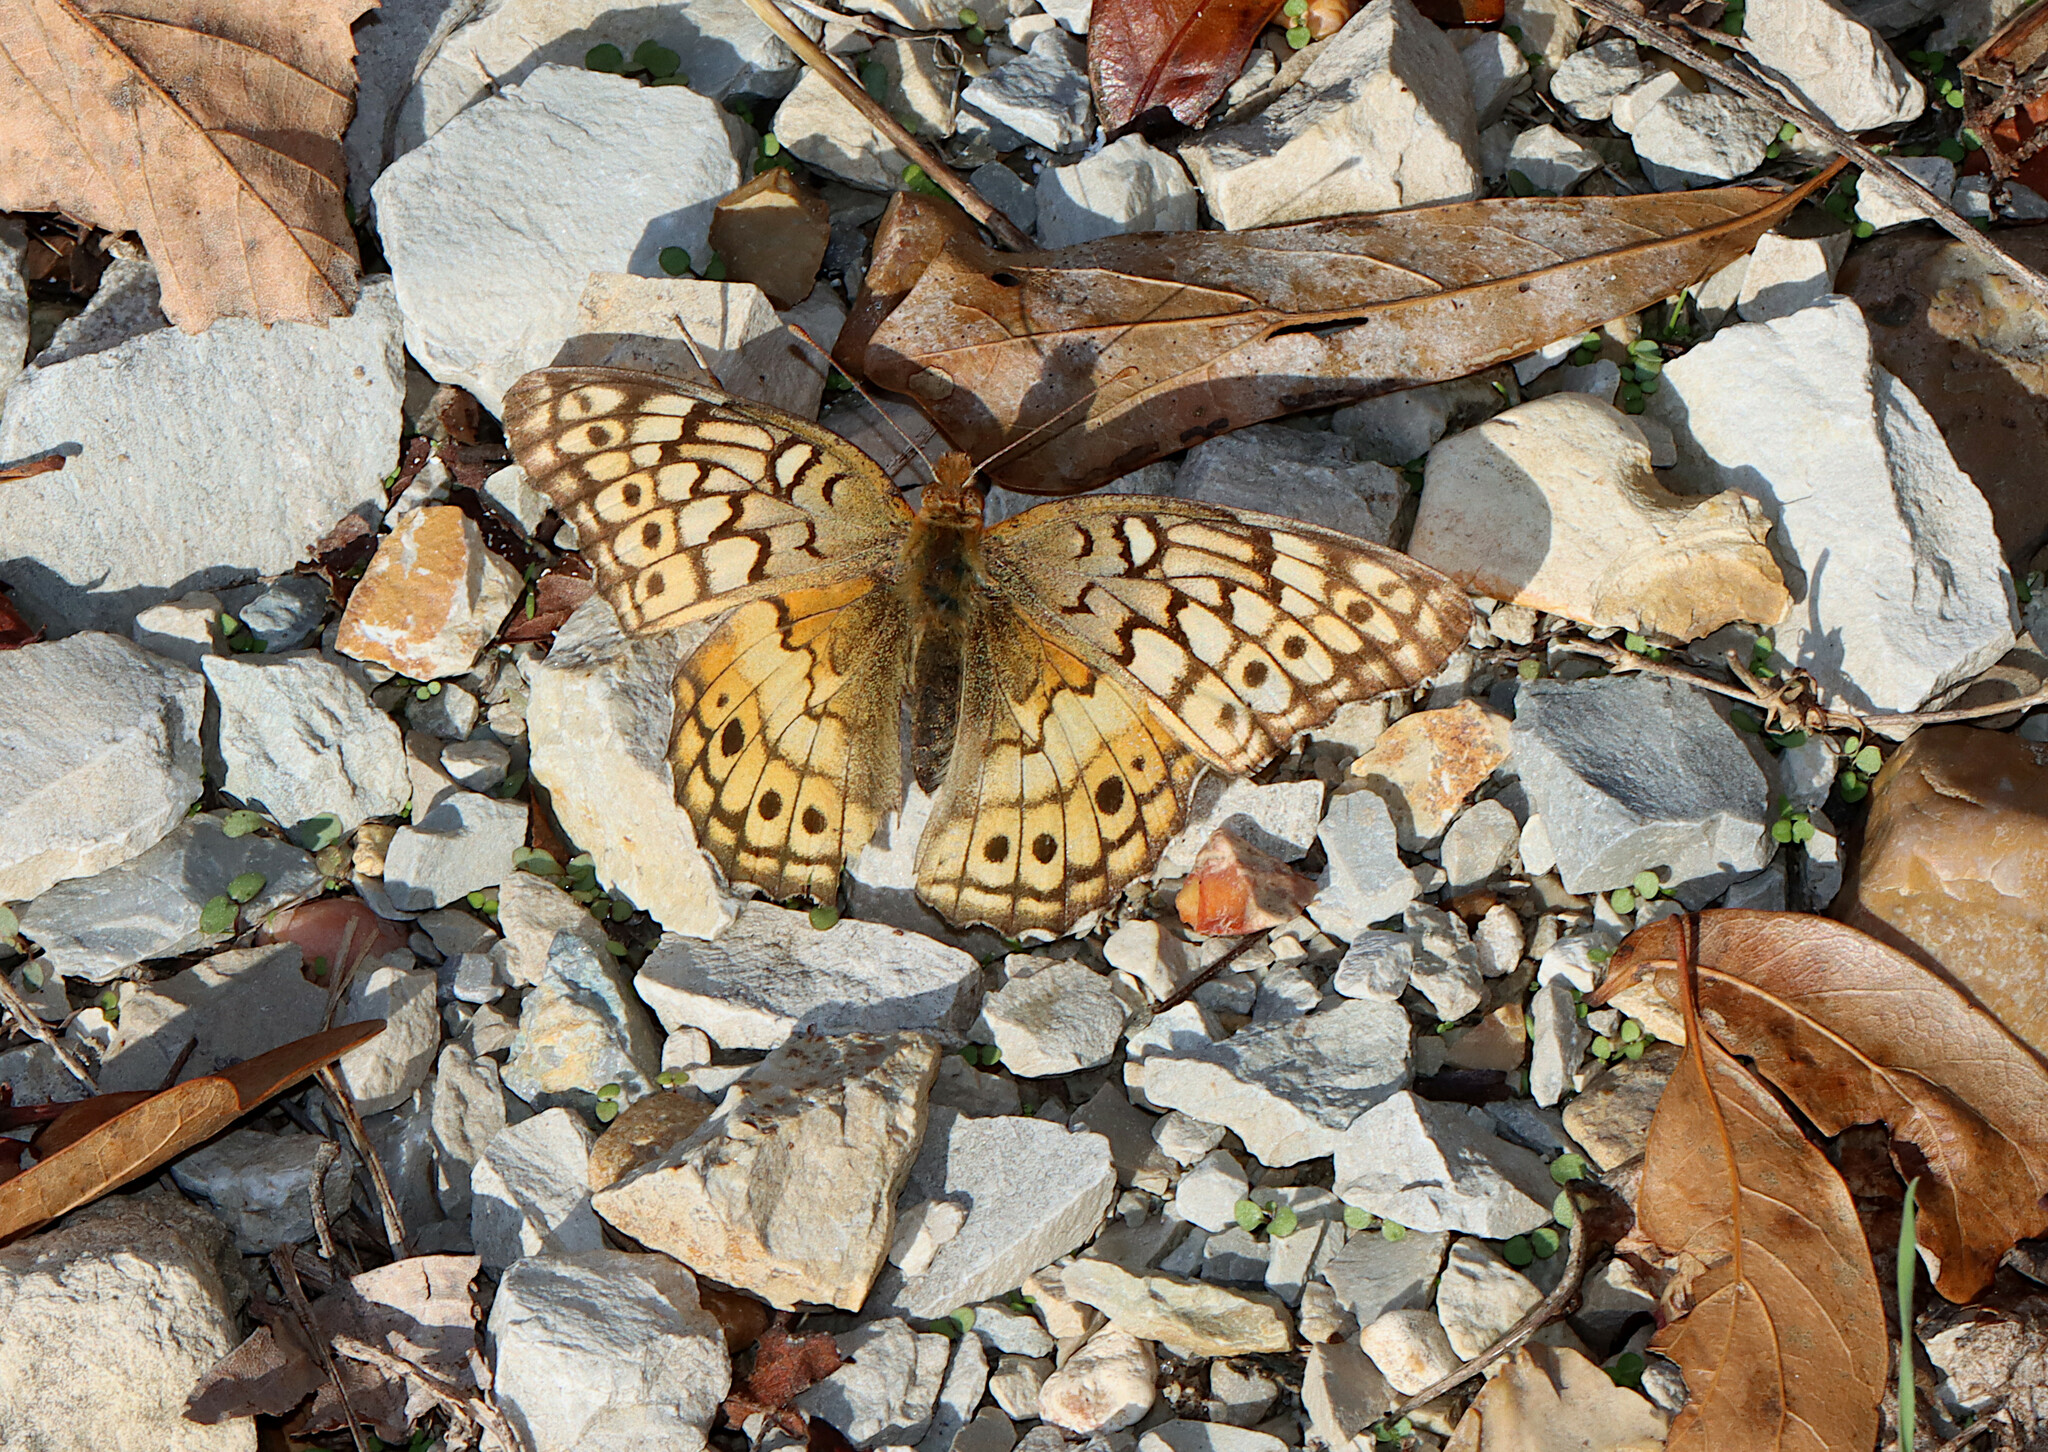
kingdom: Animalia
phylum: Arthropoda
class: Insecta
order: Lepidoptera
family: Nymphalidae
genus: Euptoieta
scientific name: Euptoieta claudia
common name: Variegated fritillary
